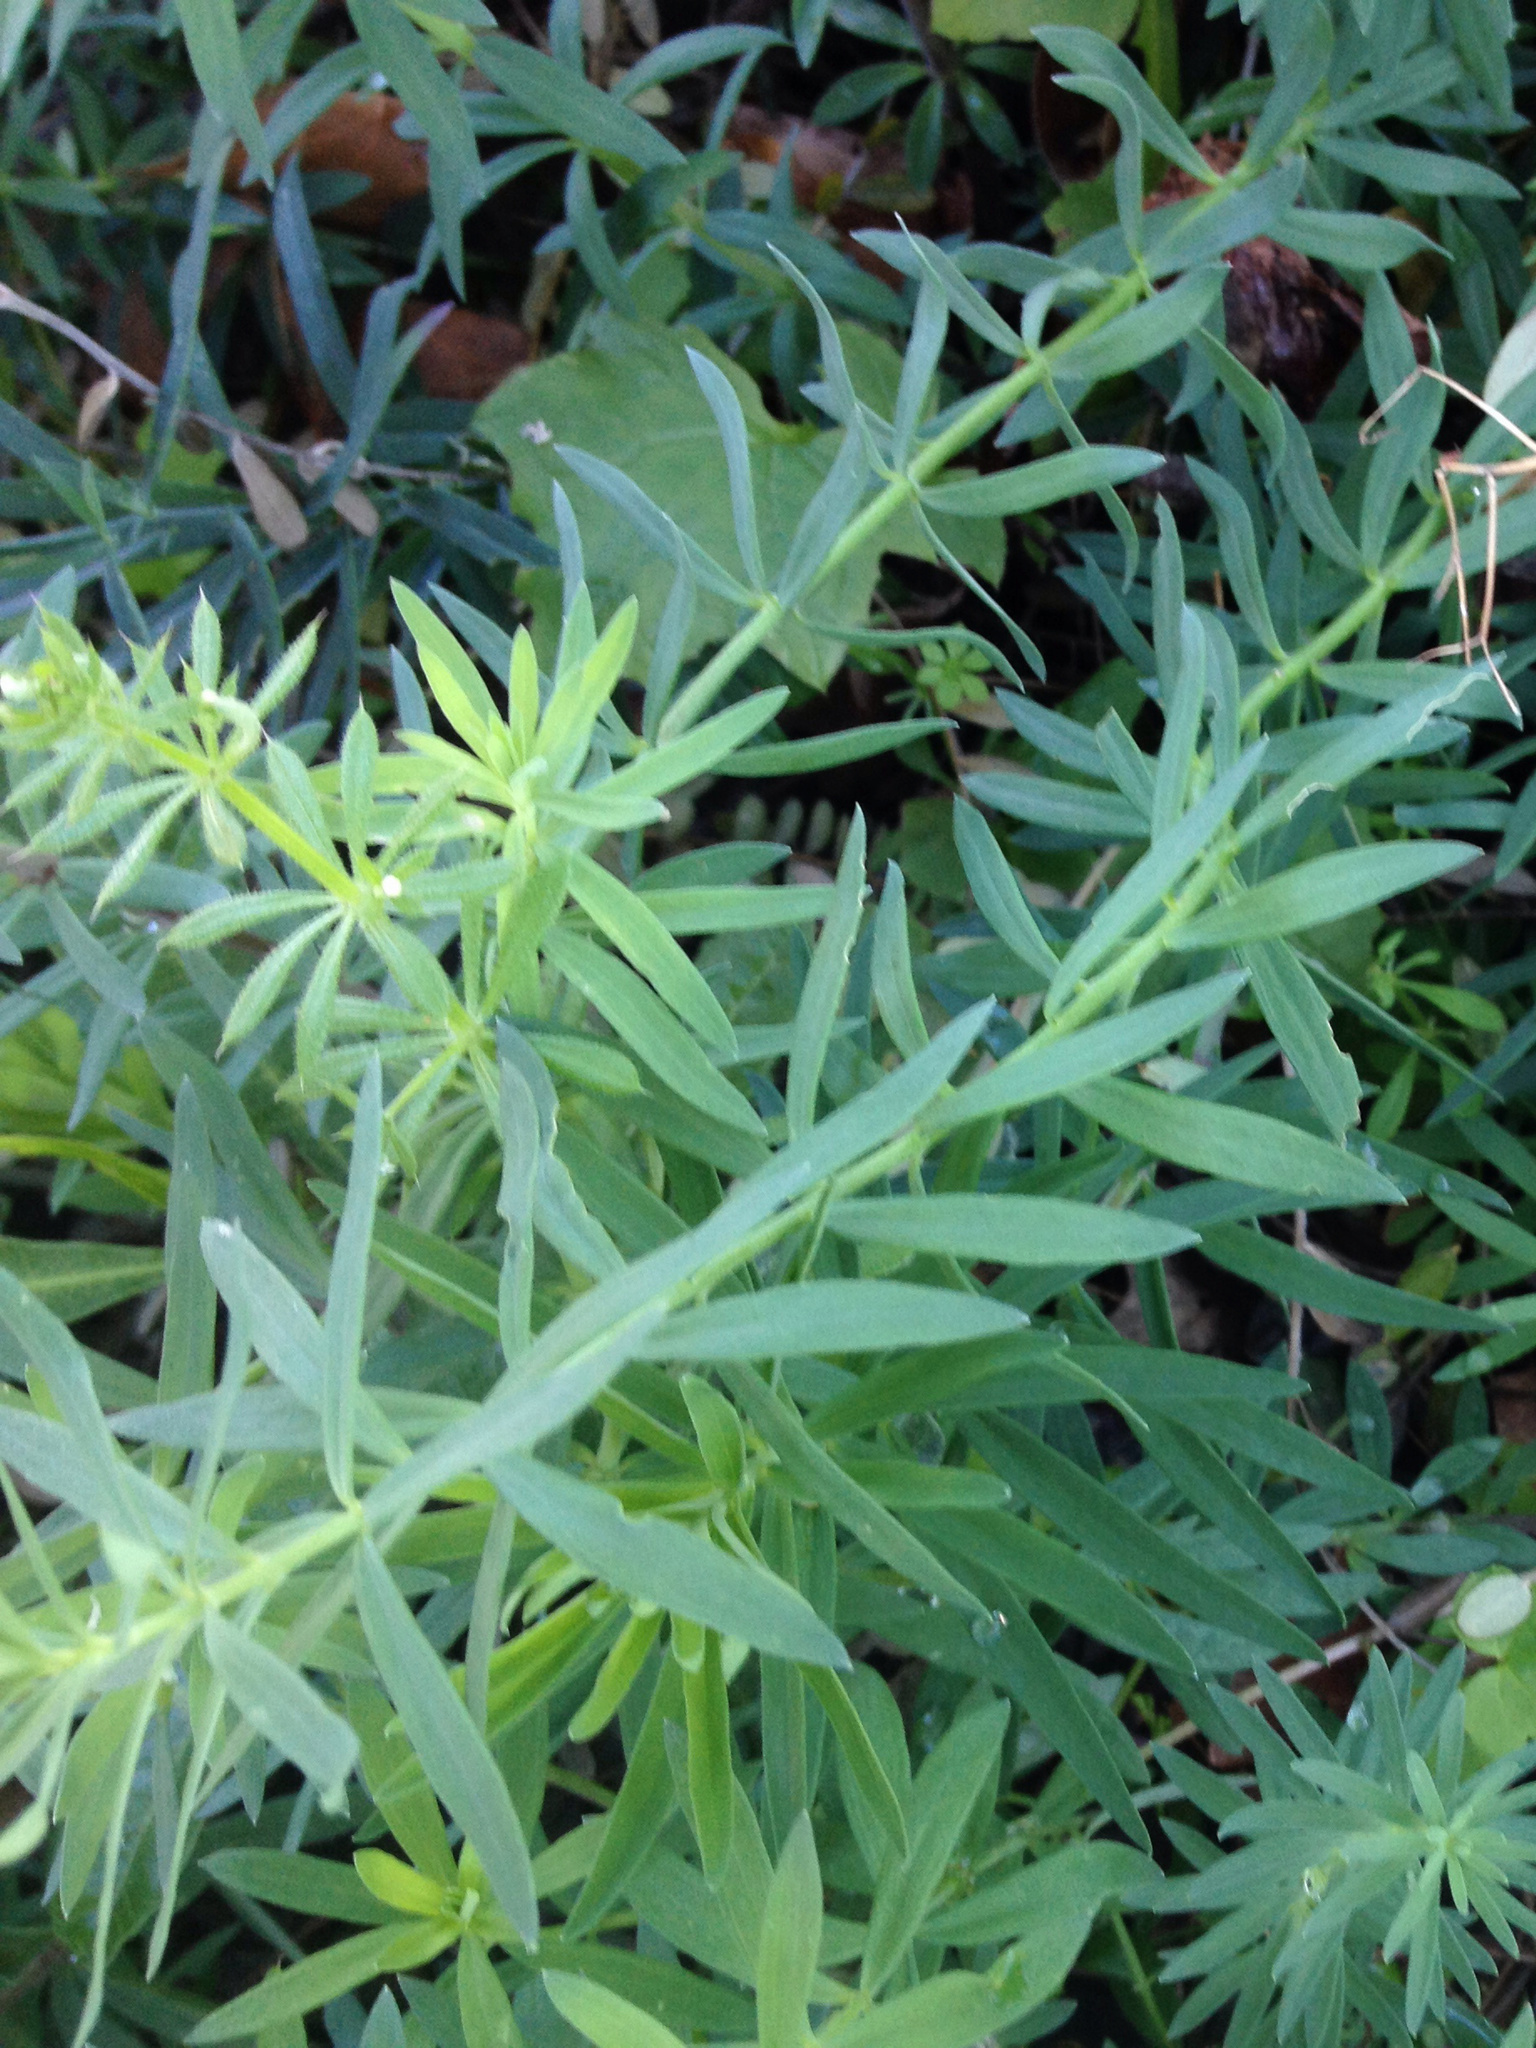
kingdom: Plantae
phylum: Tracheophyta
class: Magnoliopsida
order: Lamiales
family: Plantaginaceae
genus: Linaria
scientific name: Linaria purpurea
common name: Purple toadflax
